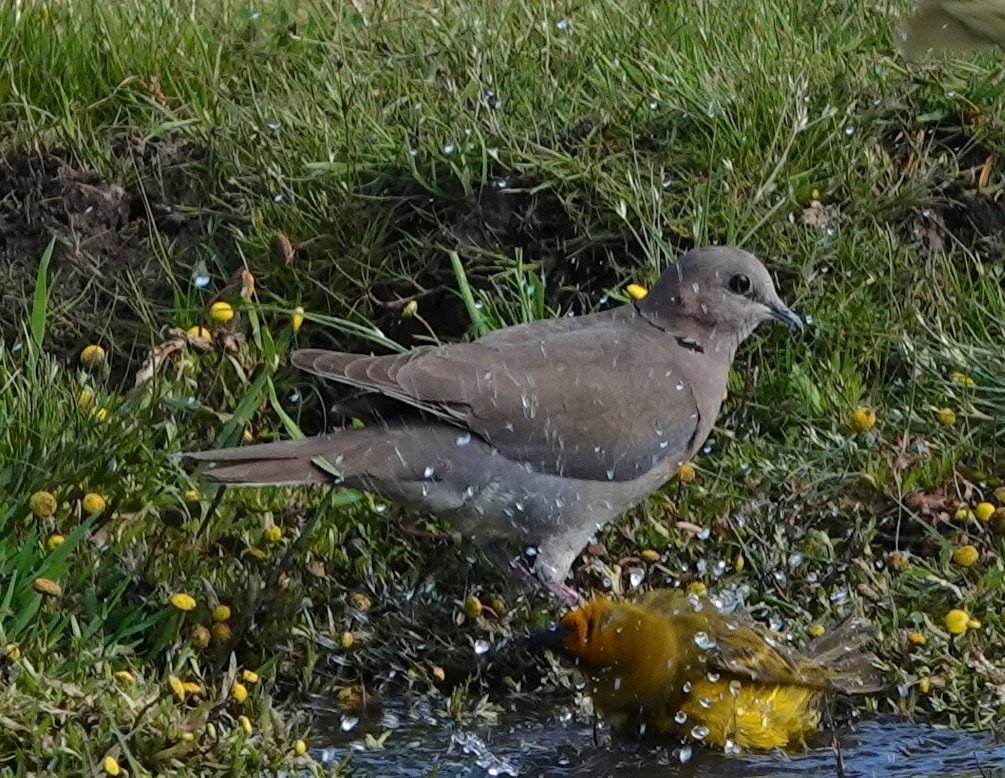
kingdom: Animalia
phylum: Chordata
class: Aves
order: Columbiformes
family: Columbidae
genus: Streptopelia
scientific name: Streptopelia capicola
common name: Ring-necked dove
